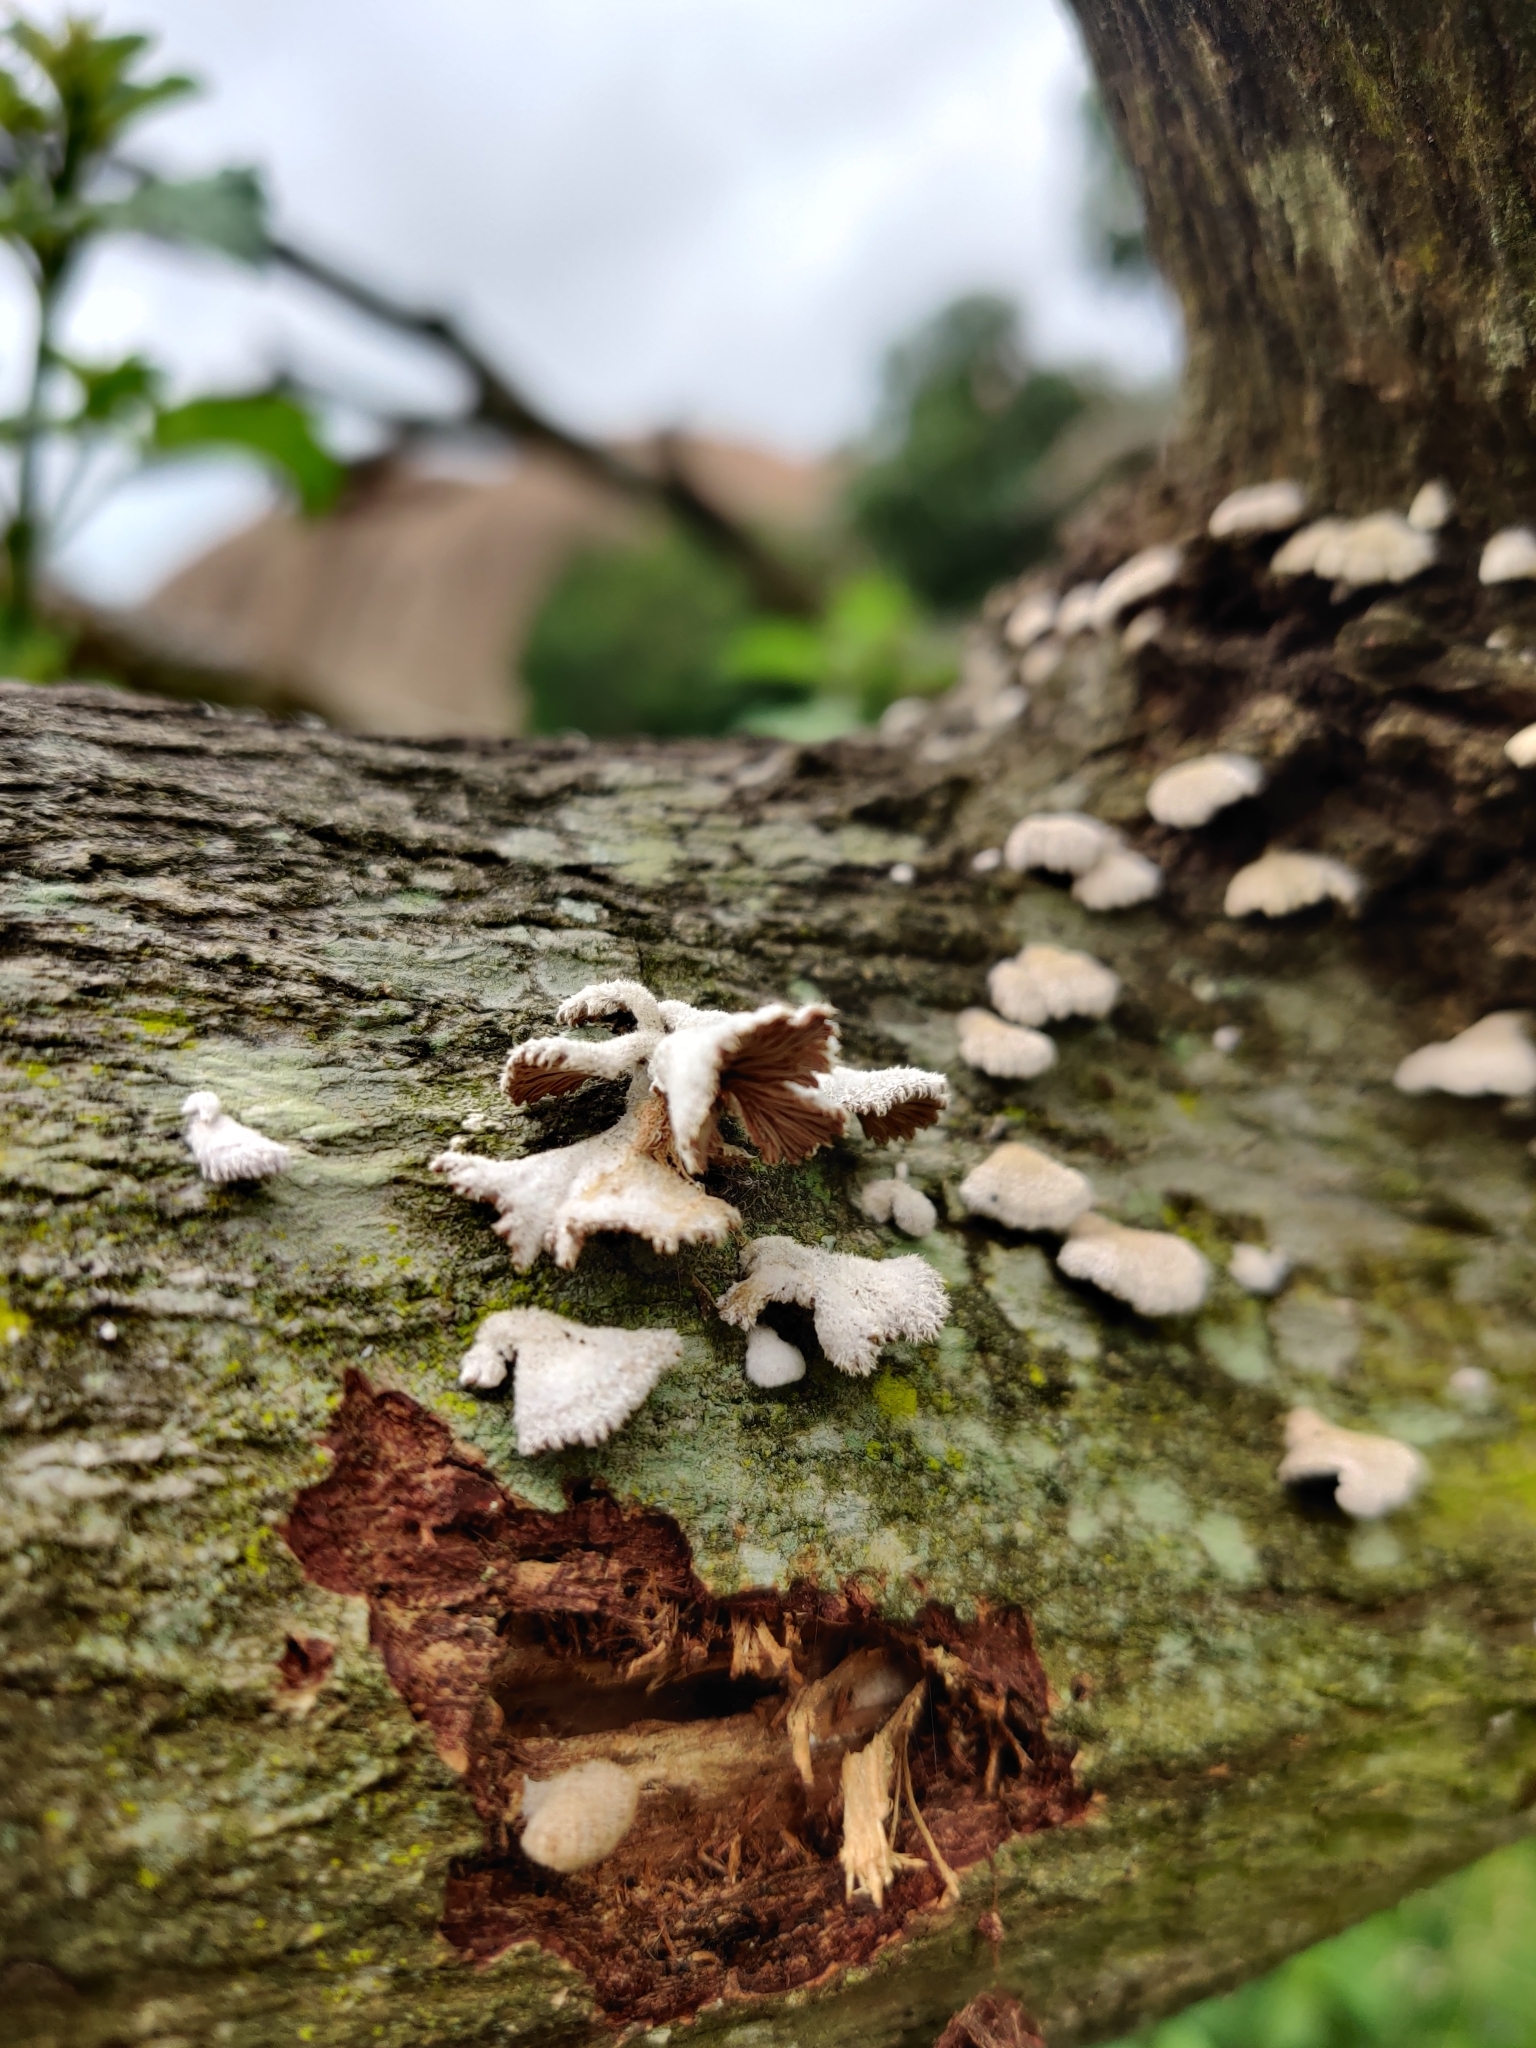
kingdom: Fungi
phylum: Basidiomycota
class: Agaricomycetes
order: Agaricales
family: Schizophyllaceae
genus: Schizophyllum
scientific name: Schizophyllum commune
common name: Common porecrust
